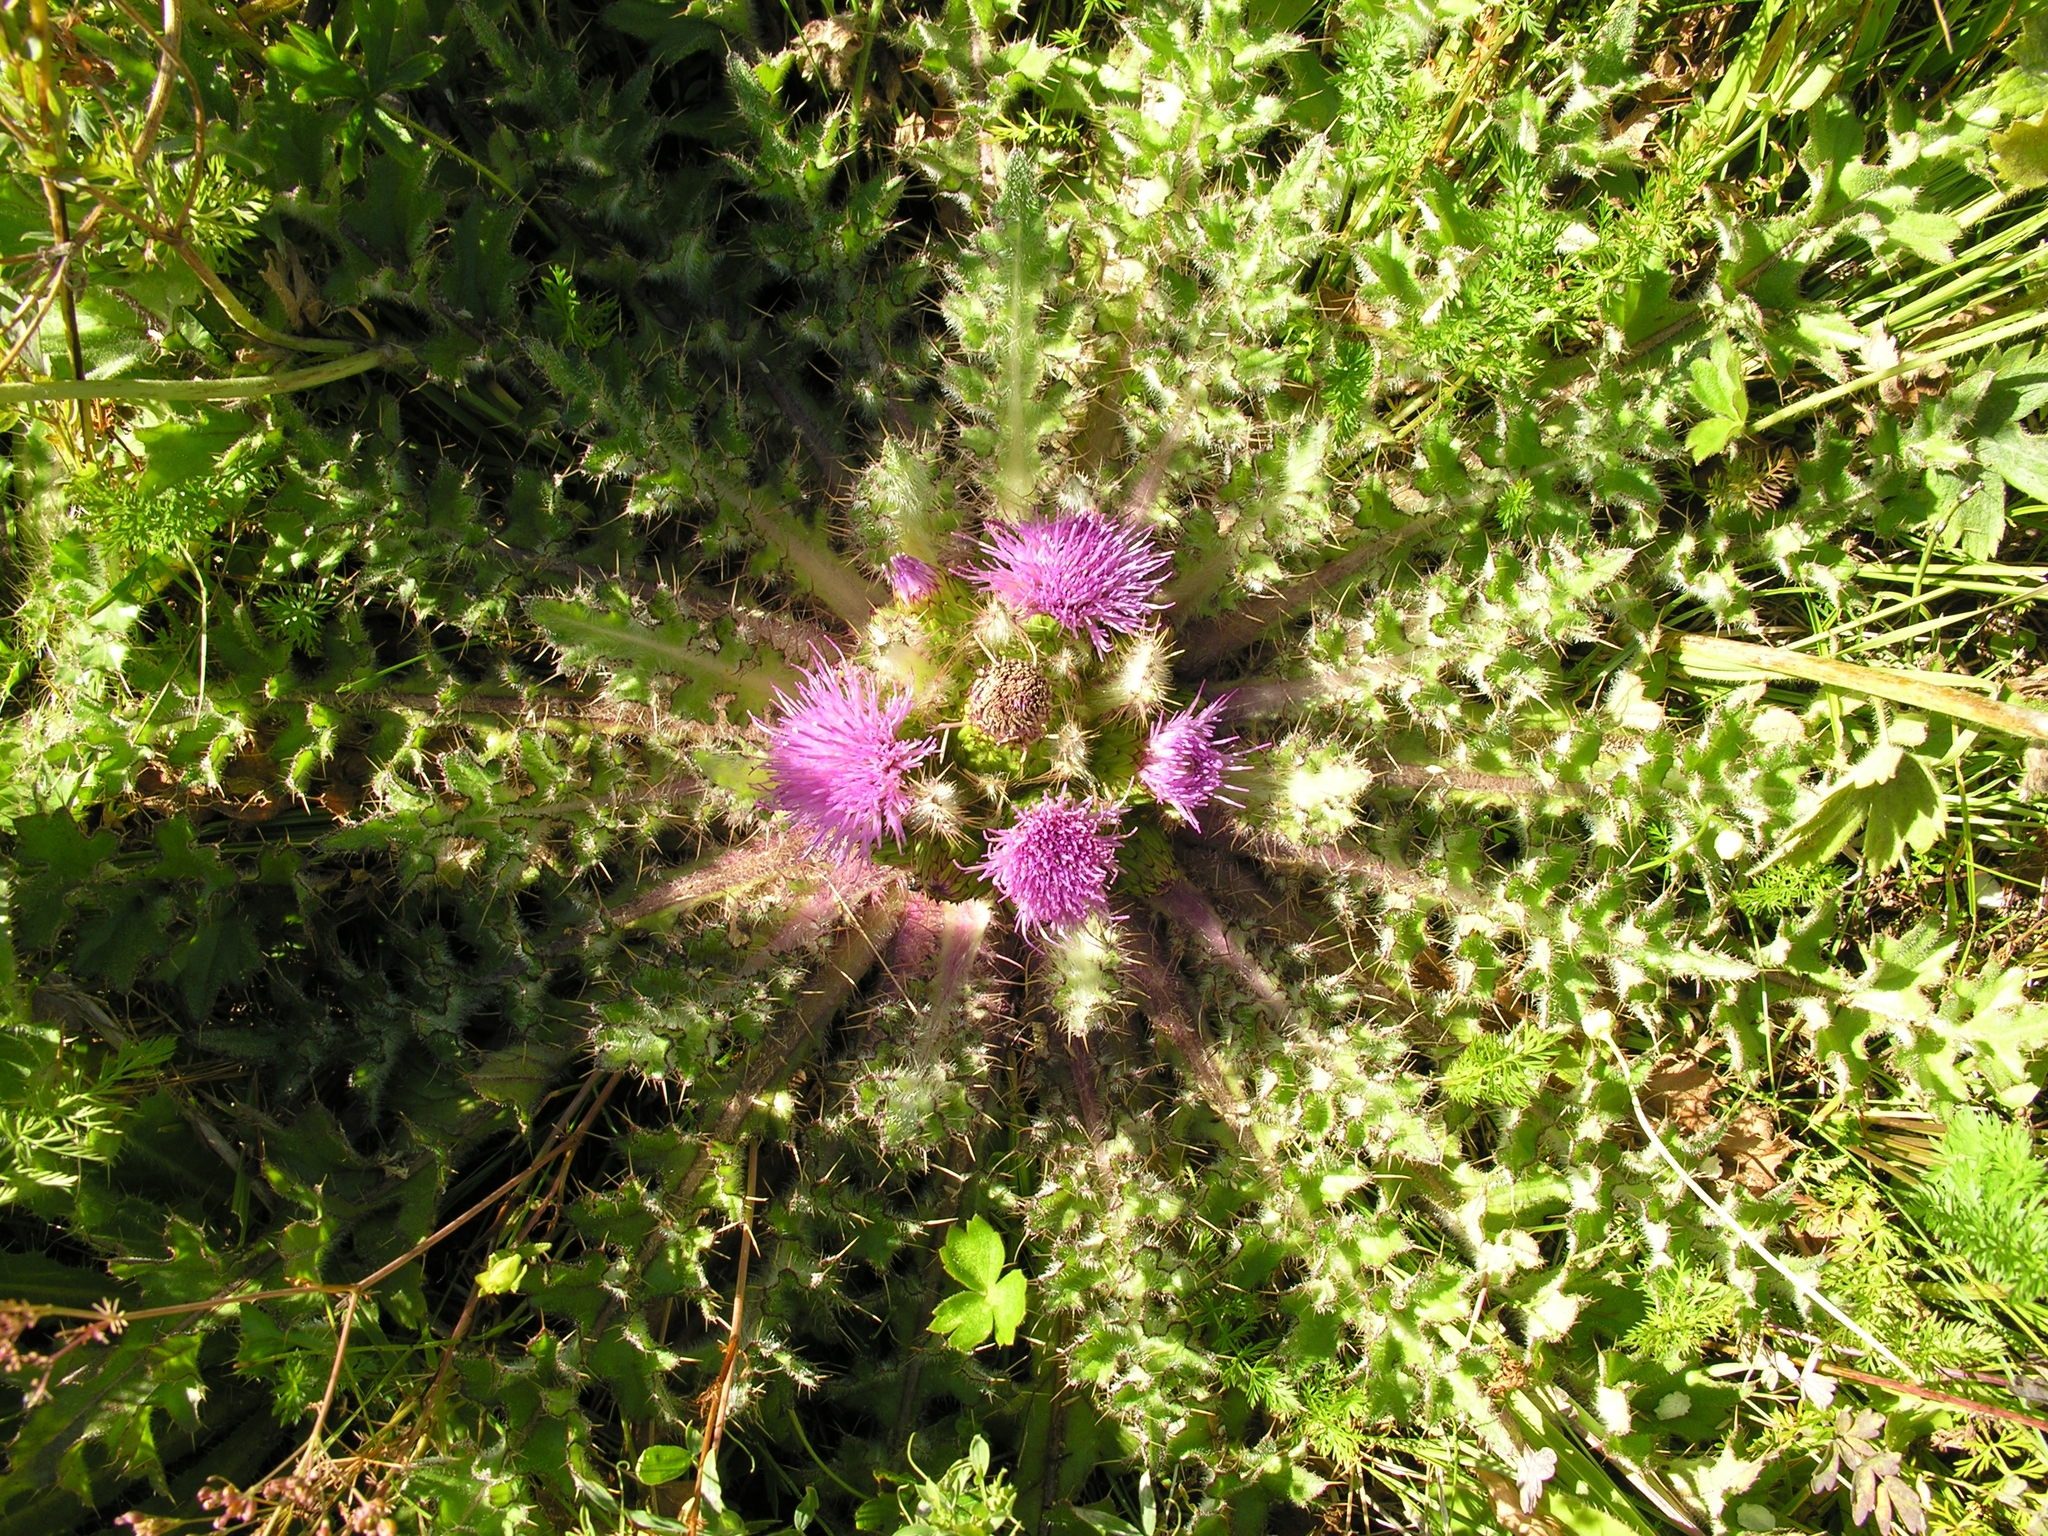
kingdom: Plantae
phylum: Tracheophyta
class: Magnoliopsida
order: Asterales
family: Asteraceae
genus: Cirsium
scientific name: Cirsium esculentum
